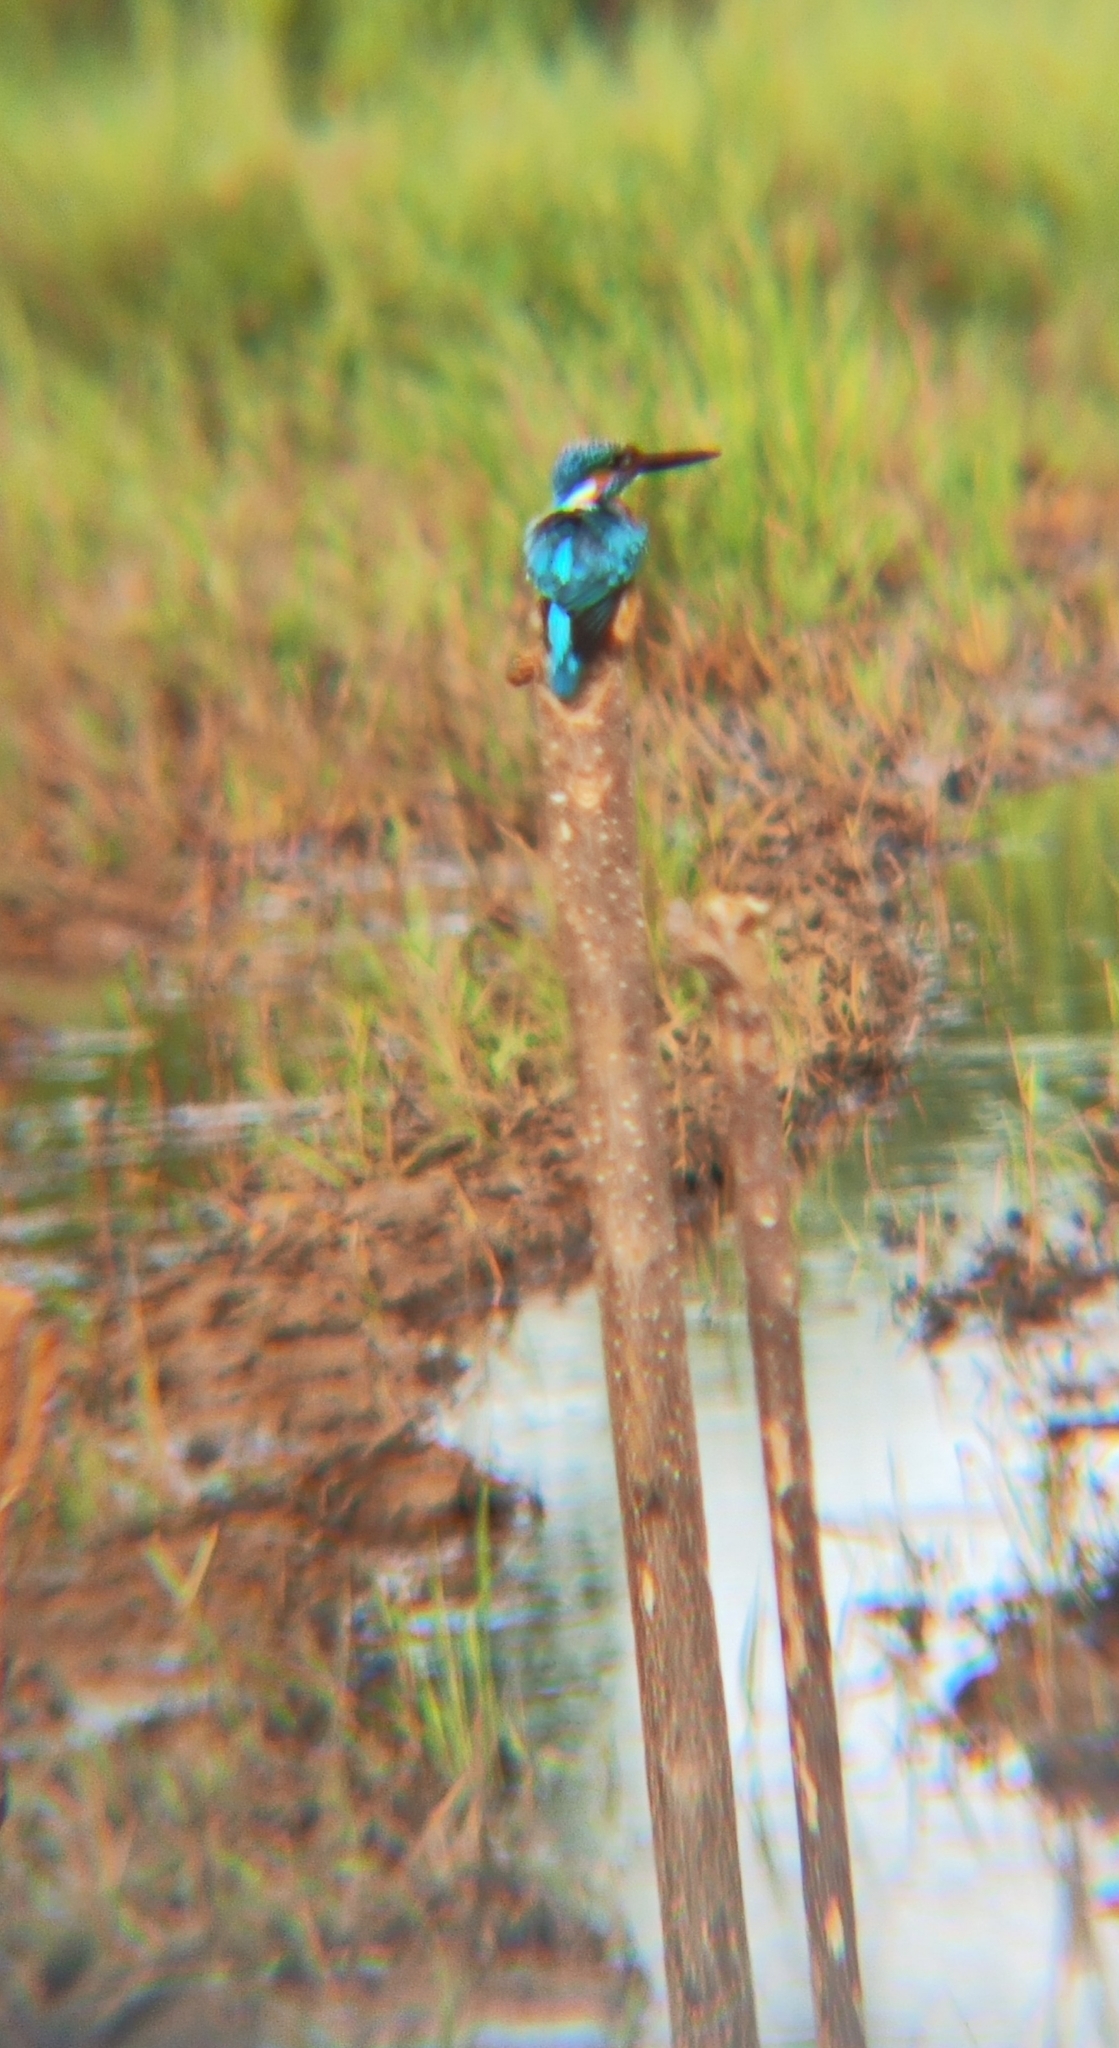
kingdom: Animalia
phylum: Chordata
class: Aves
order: Coraciiformes
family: Alcedinidae
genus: Alcedo
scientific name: Alcedo atthis
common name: Common kingfisher
